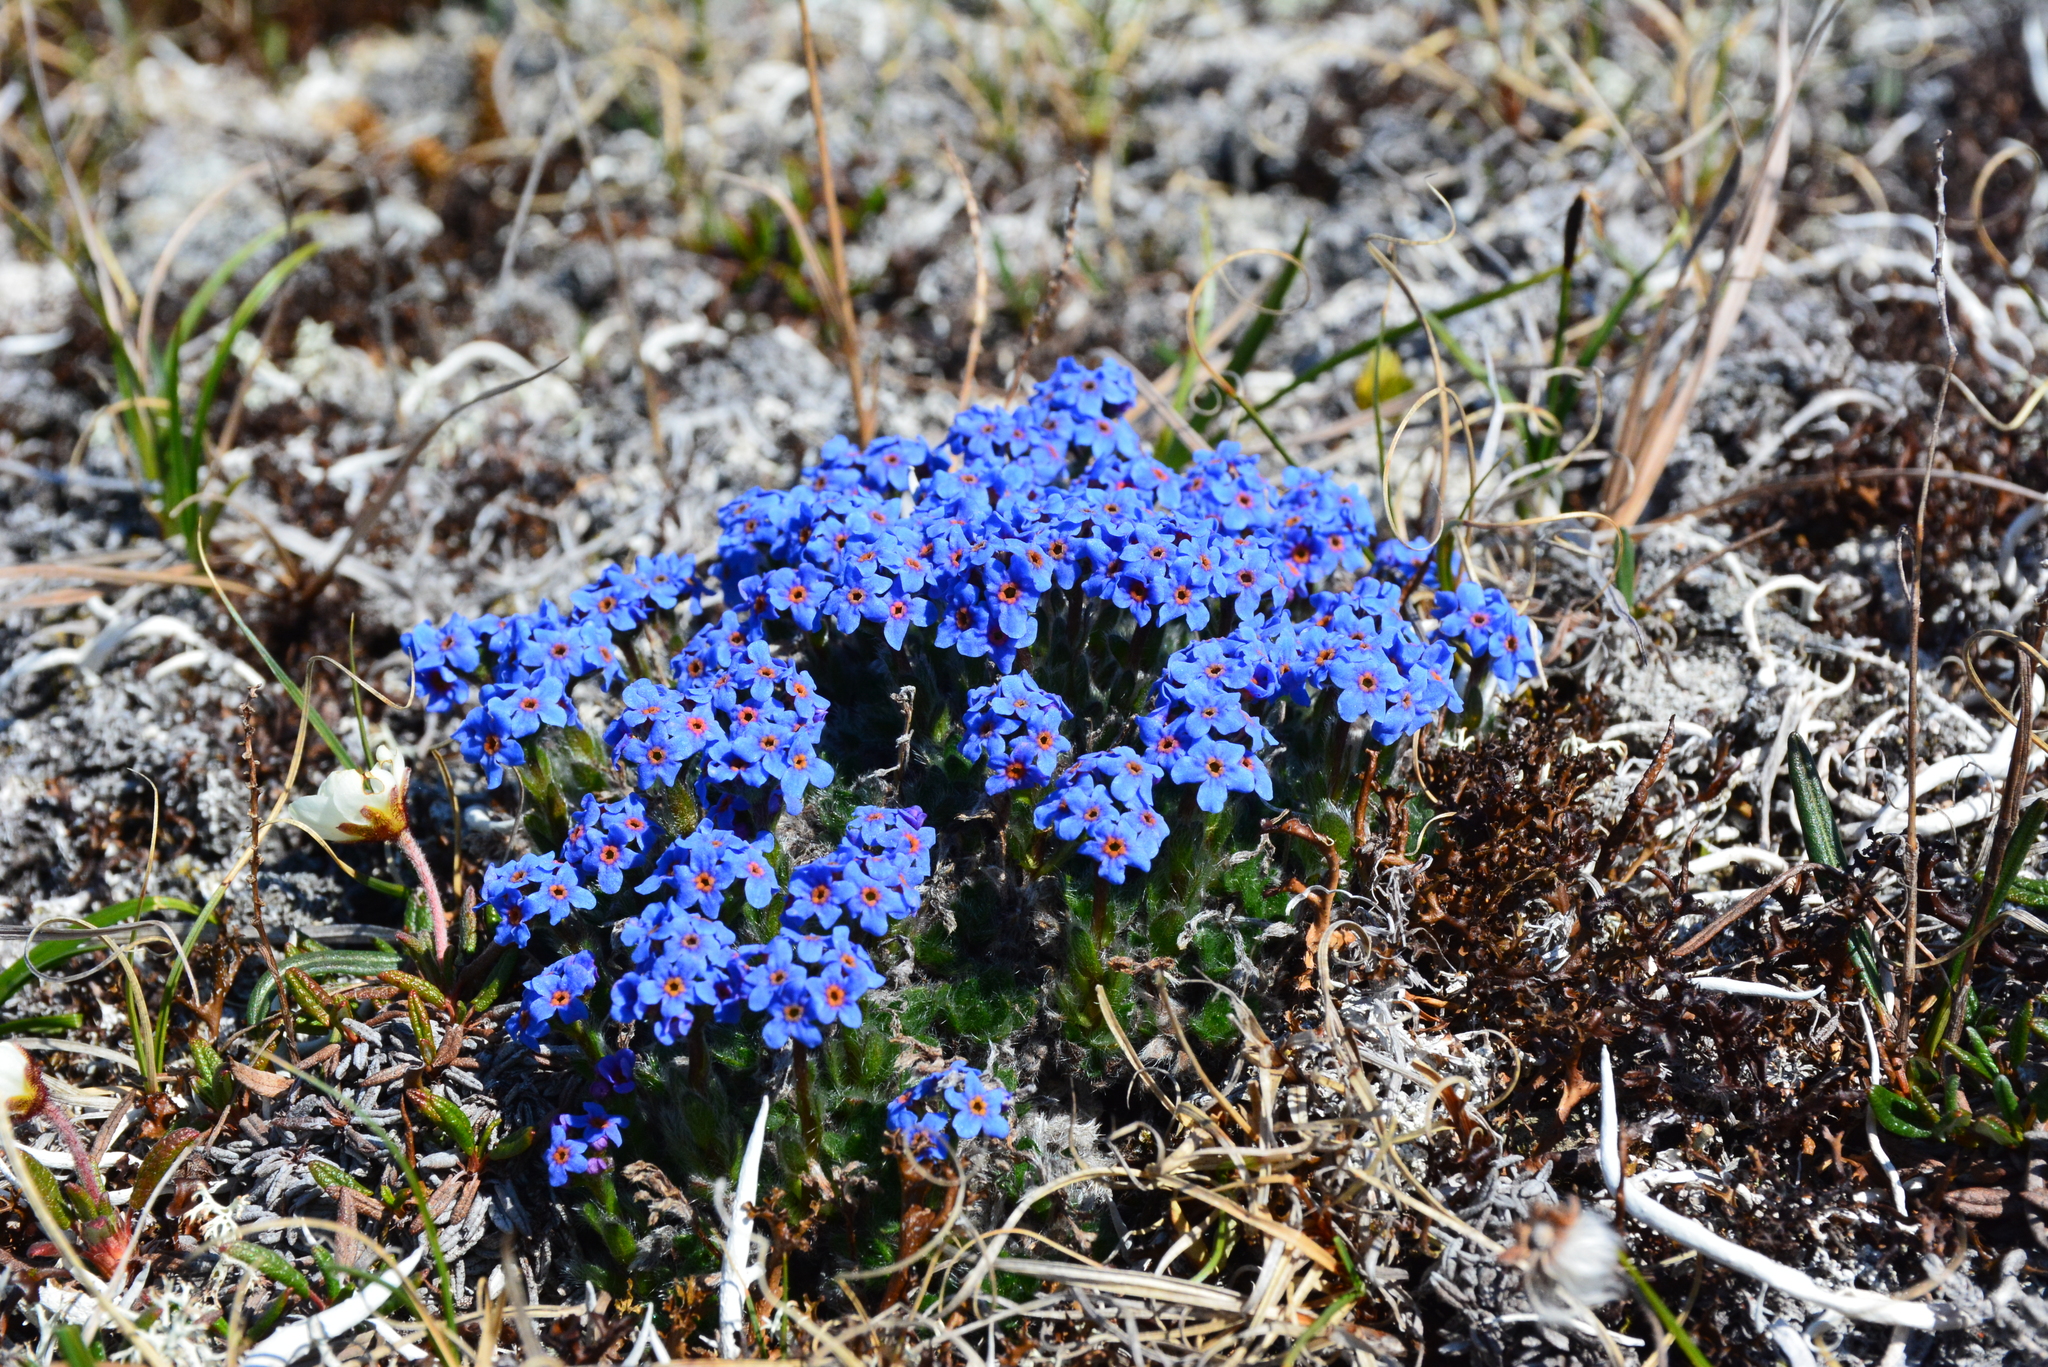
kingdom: Plantae
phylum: Tracheophyta
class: Magnoliopsida
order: Boraginales
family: Boraginaceae
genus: Eritrichium
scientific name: Eritrichium villosum
